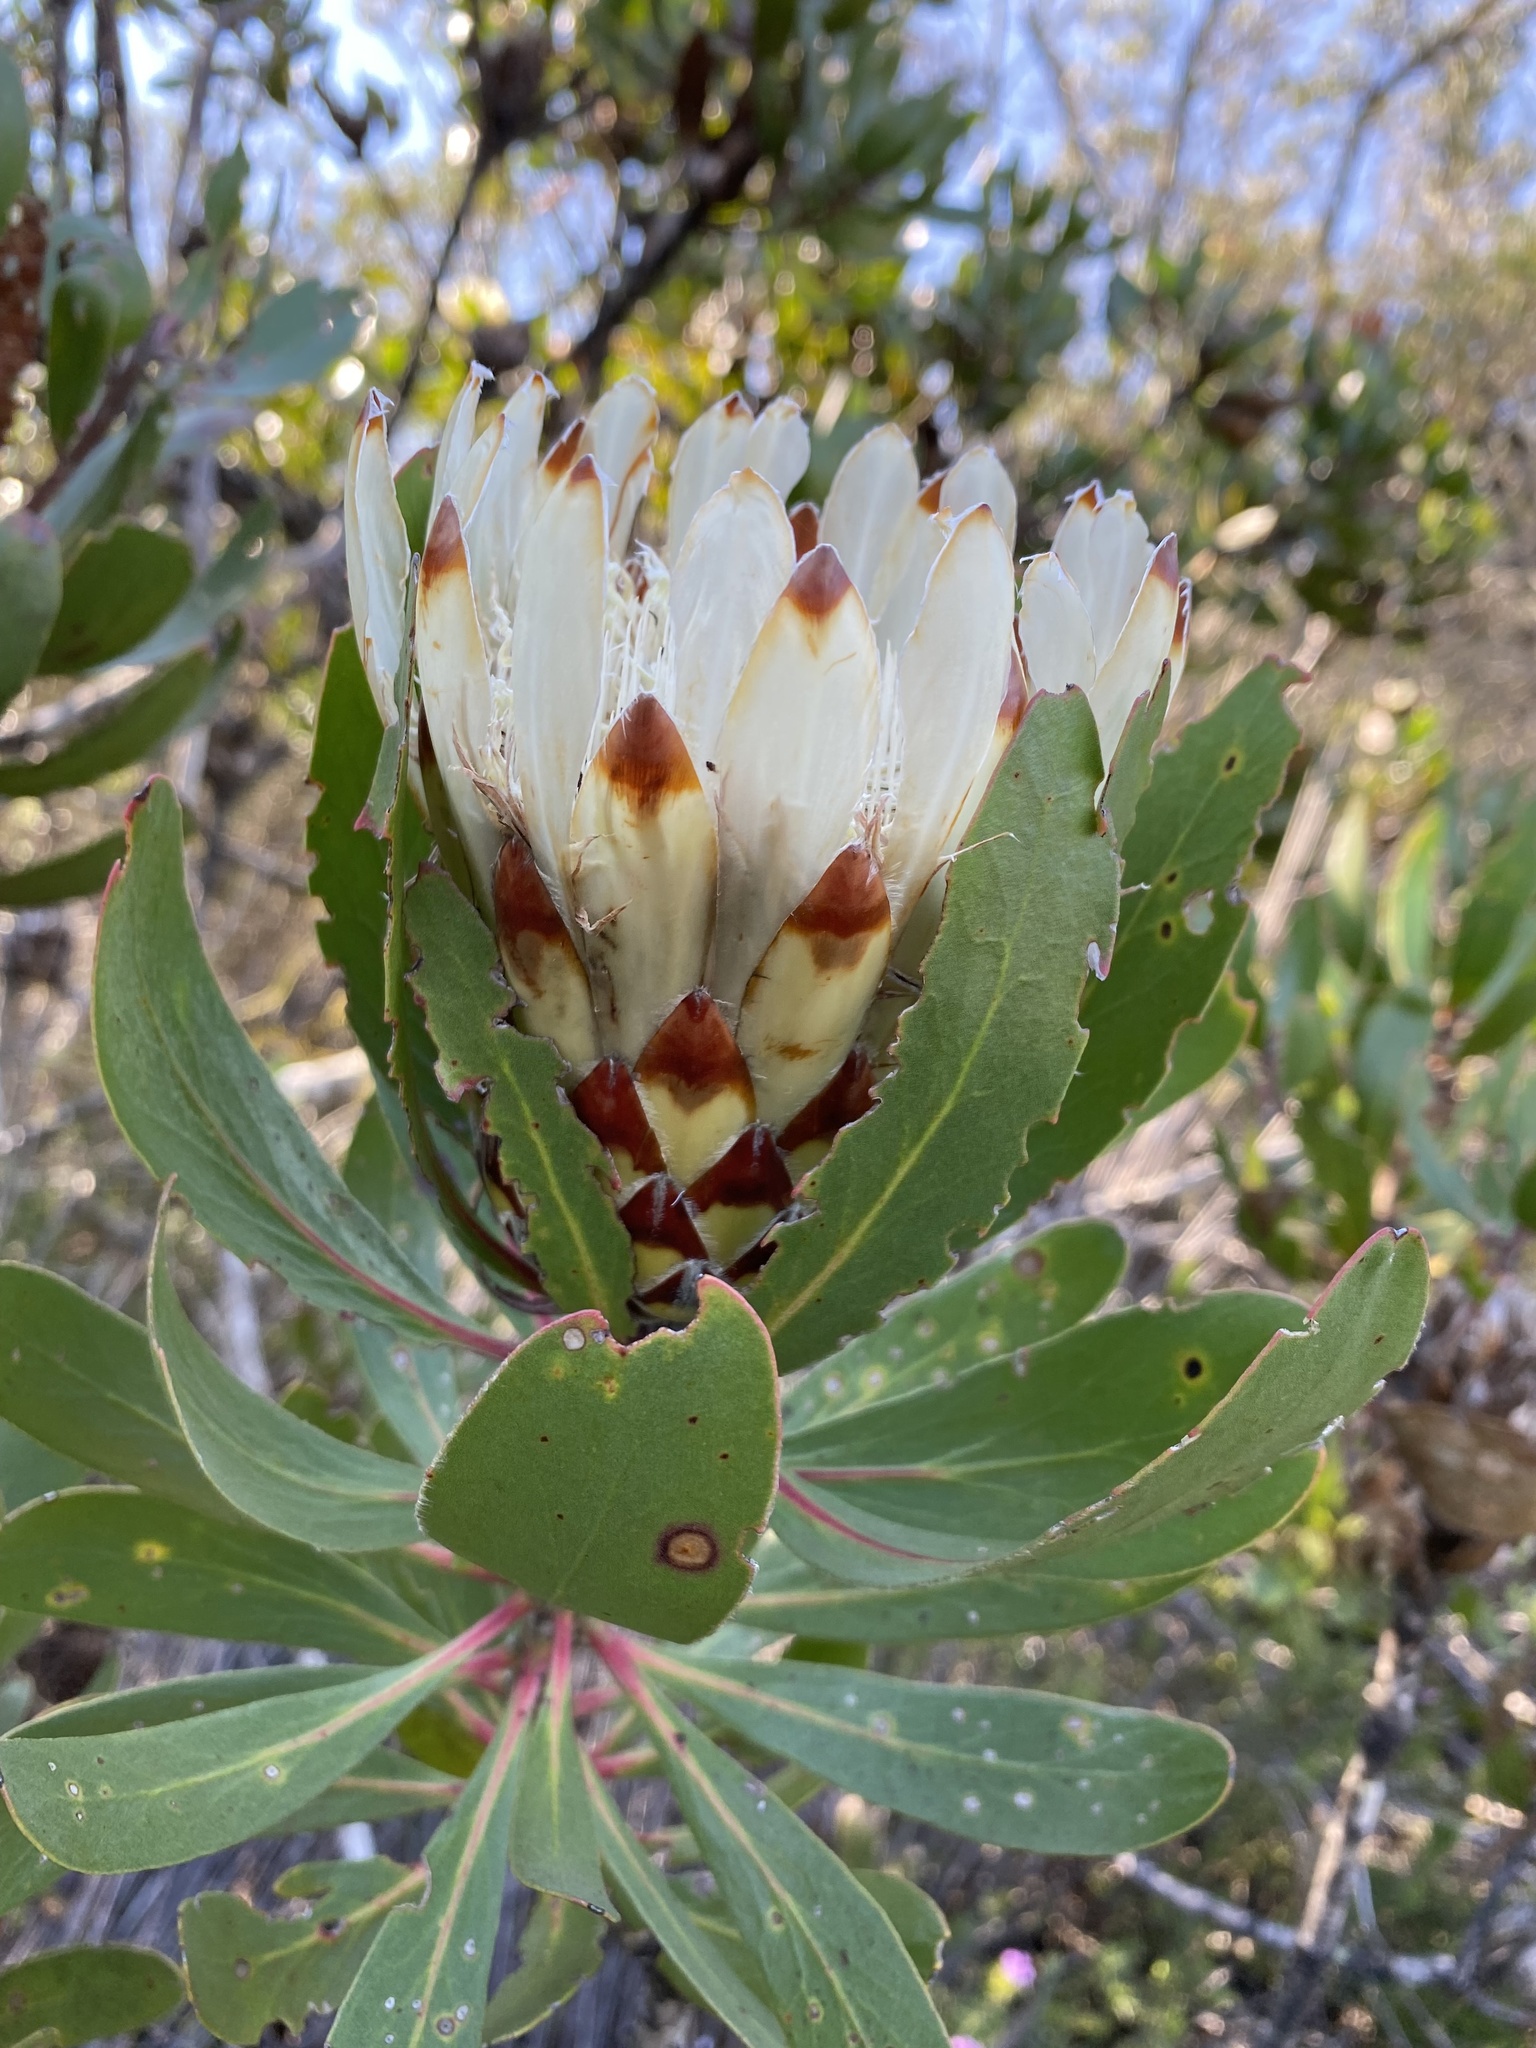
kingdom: Plantae
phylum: Tracheophyta
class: Magnoliopsida
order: Proteales
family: Proteaceae
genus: Protea
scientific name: Protea obtusifolia
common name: Bredasdorp sugarbush
